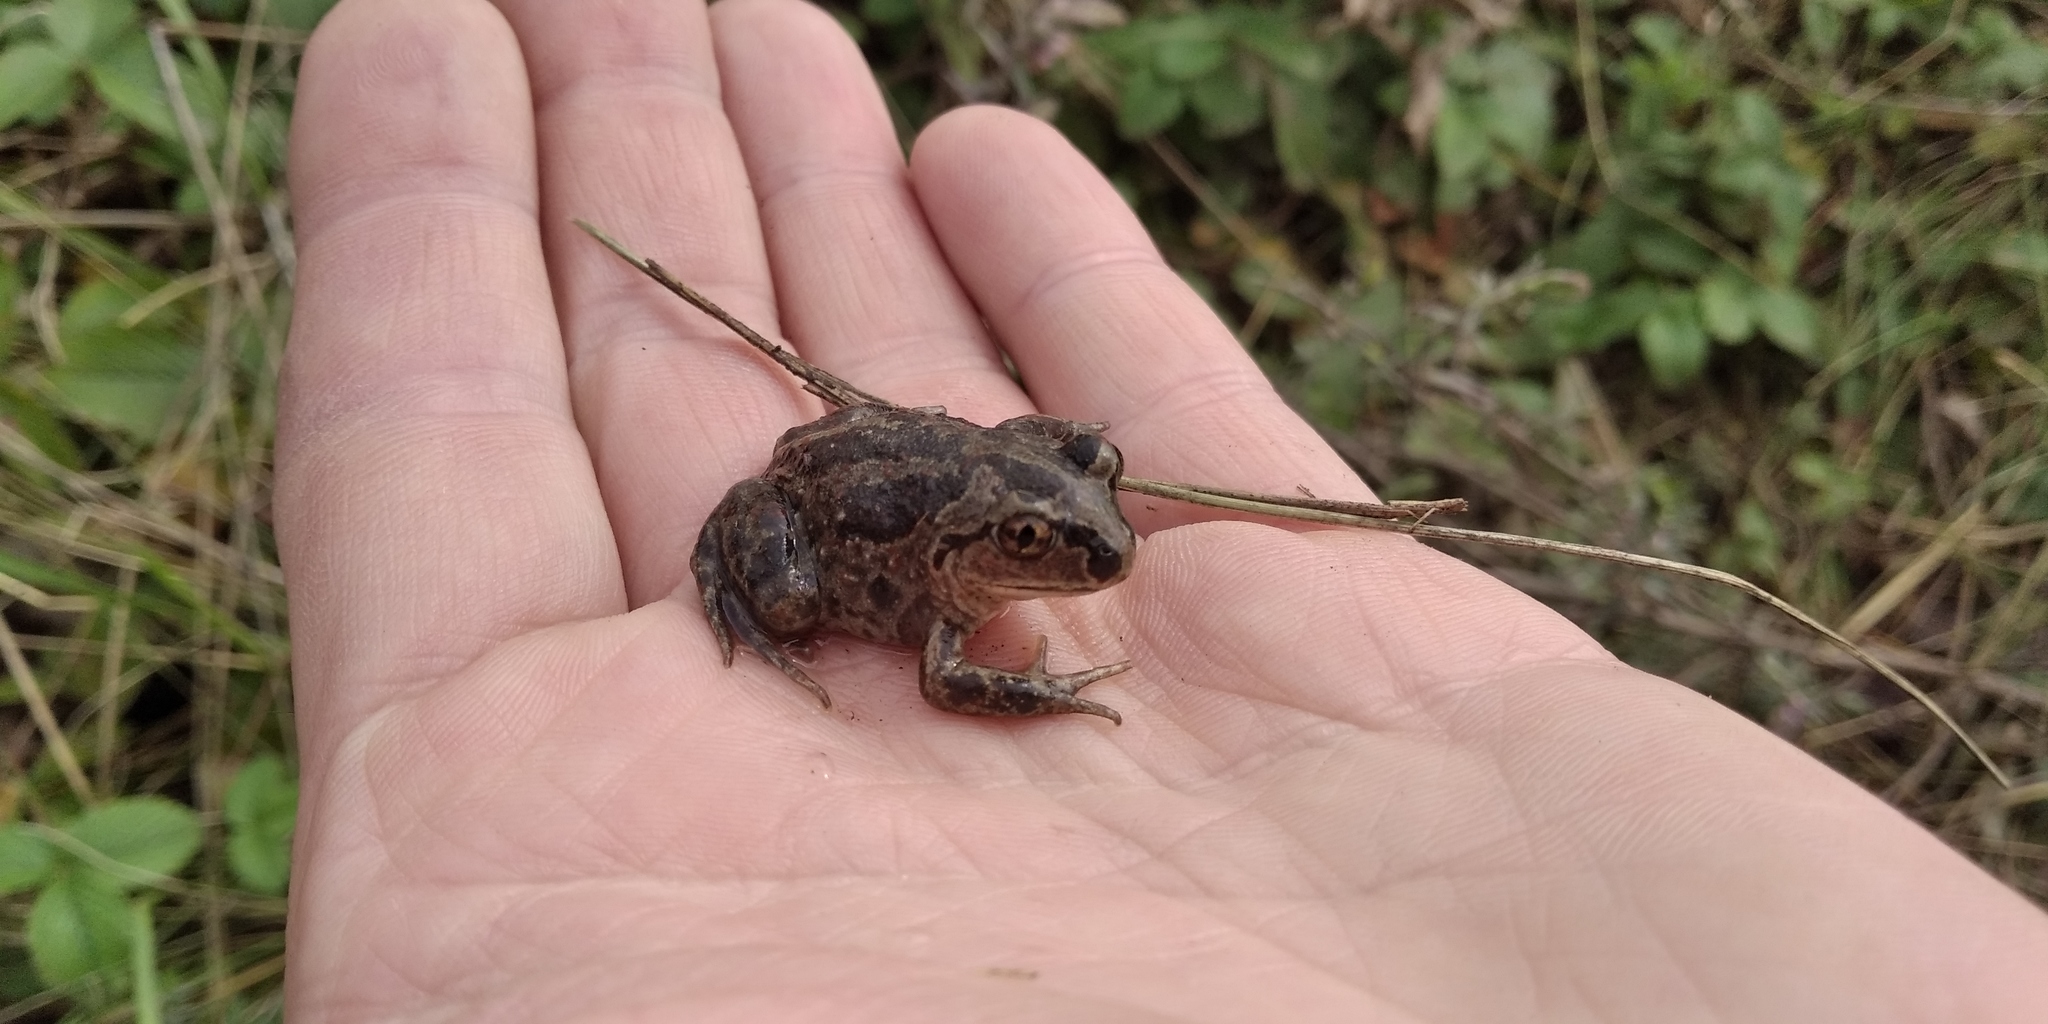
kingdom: Animalia
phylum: Chordata
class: Amphibia
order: Anura
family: Pelobatidae
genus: Pelobates
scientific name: Pelobates fuscus
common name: Common eurasian spadefoot toad
